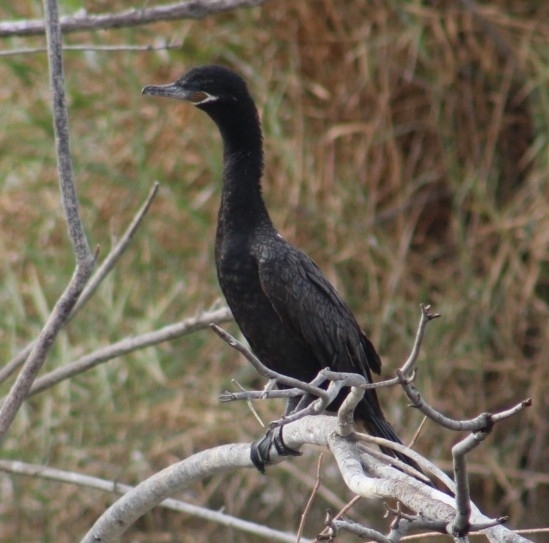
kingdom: Animalia
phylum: Chordata
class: Aves
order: Suliformes
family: Phalacrocoracidae
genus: Phalacrocorax
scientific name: Phalacrocorax brasilianus
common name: Neotropic cormorant
